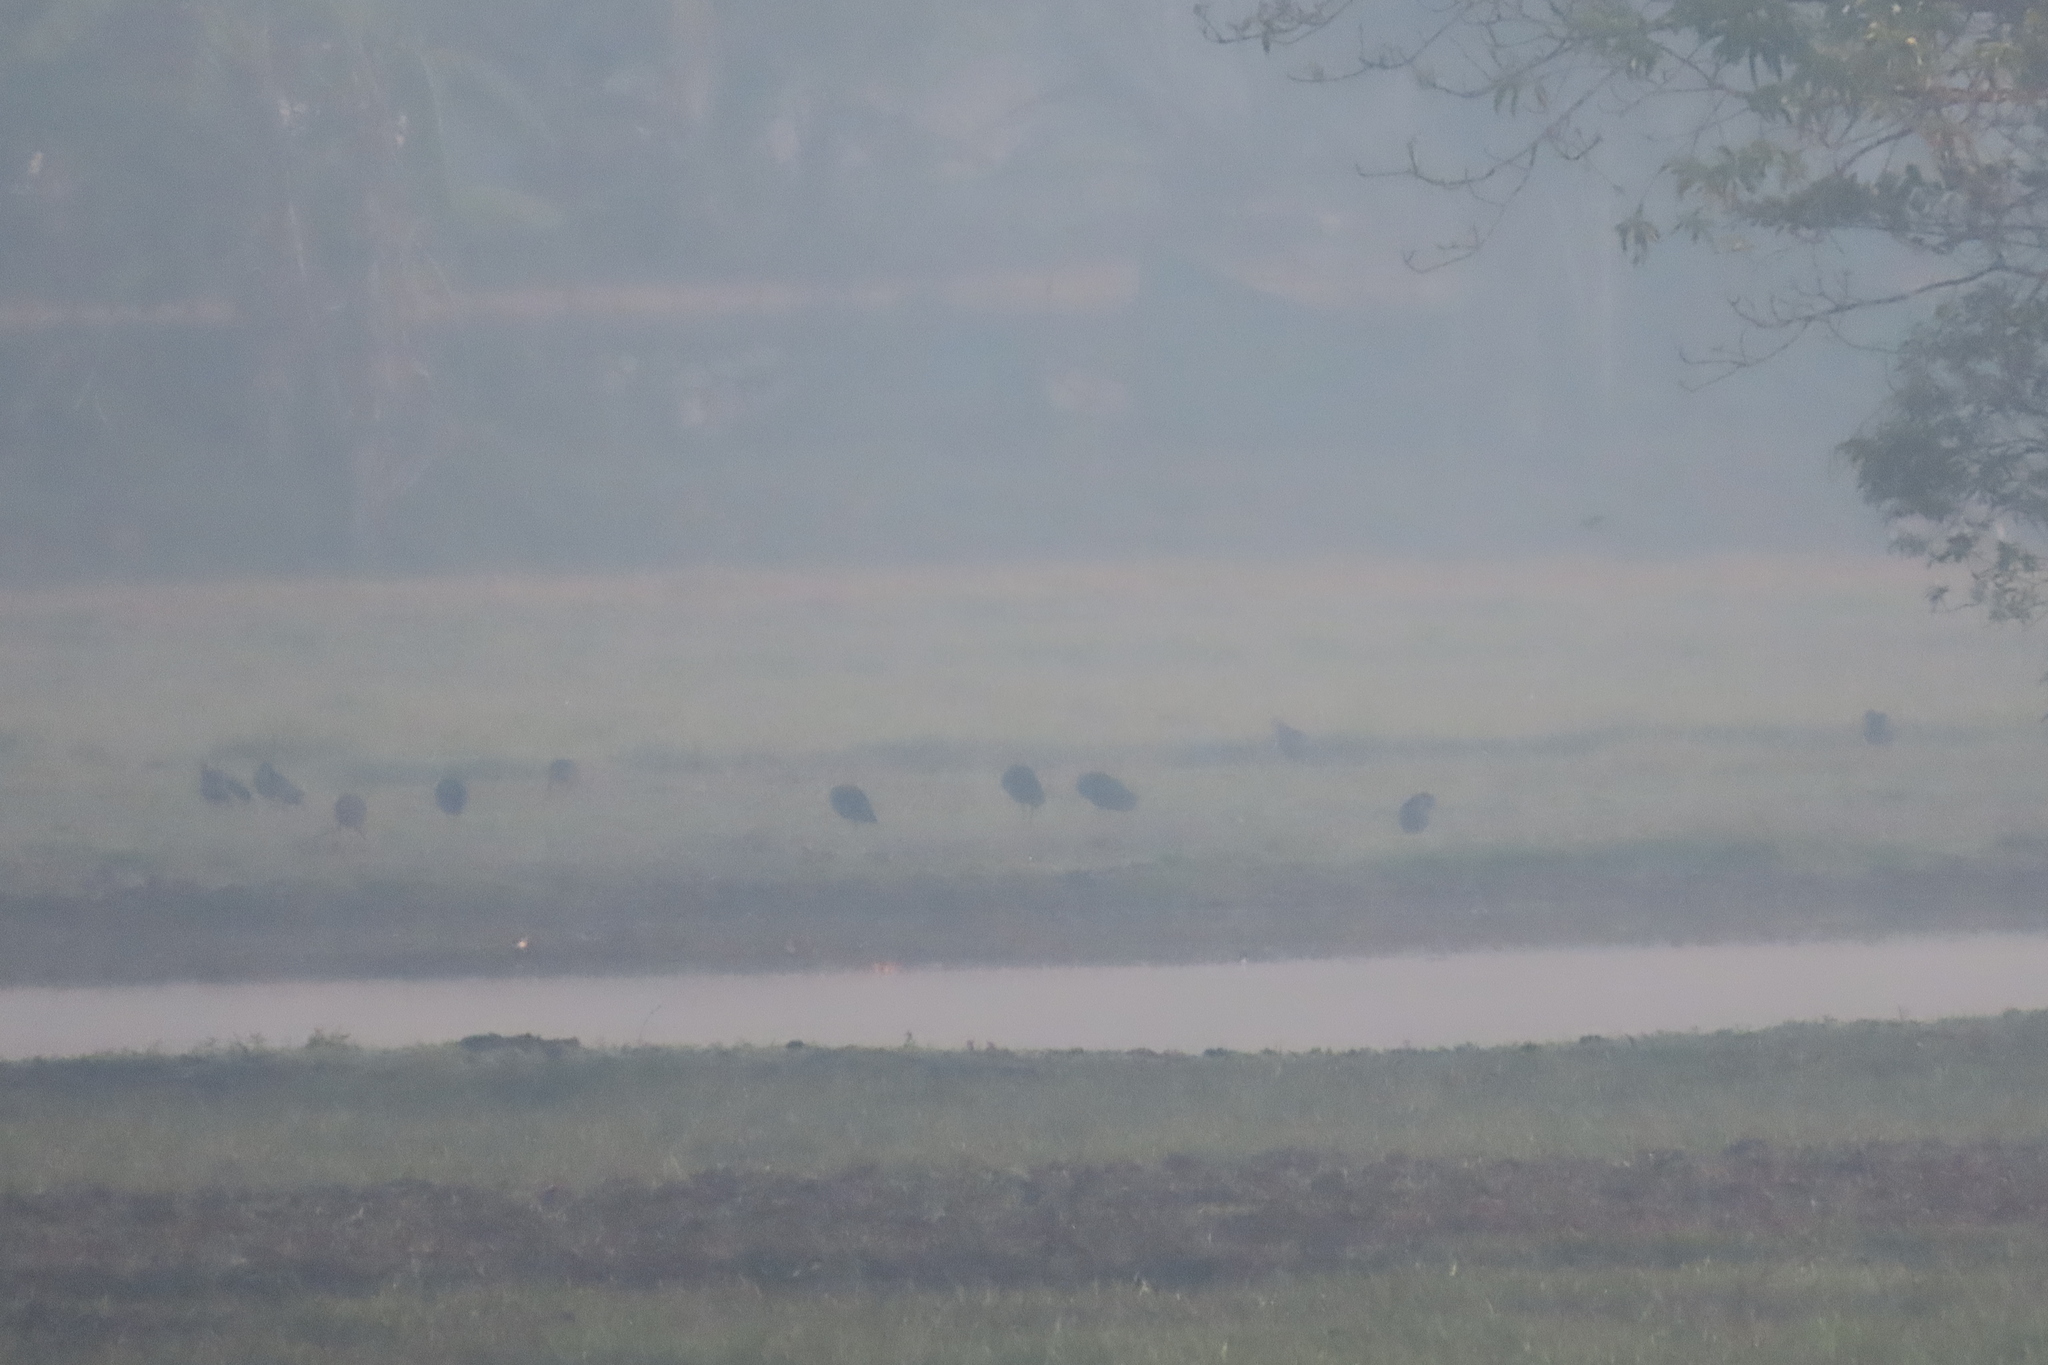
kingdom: Animalia
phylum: Chordata
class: Aves
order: Gruiformes
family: Rallidae
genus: Porphyrio
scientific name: Porphyrio porphyrio
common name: Purple swamphen
